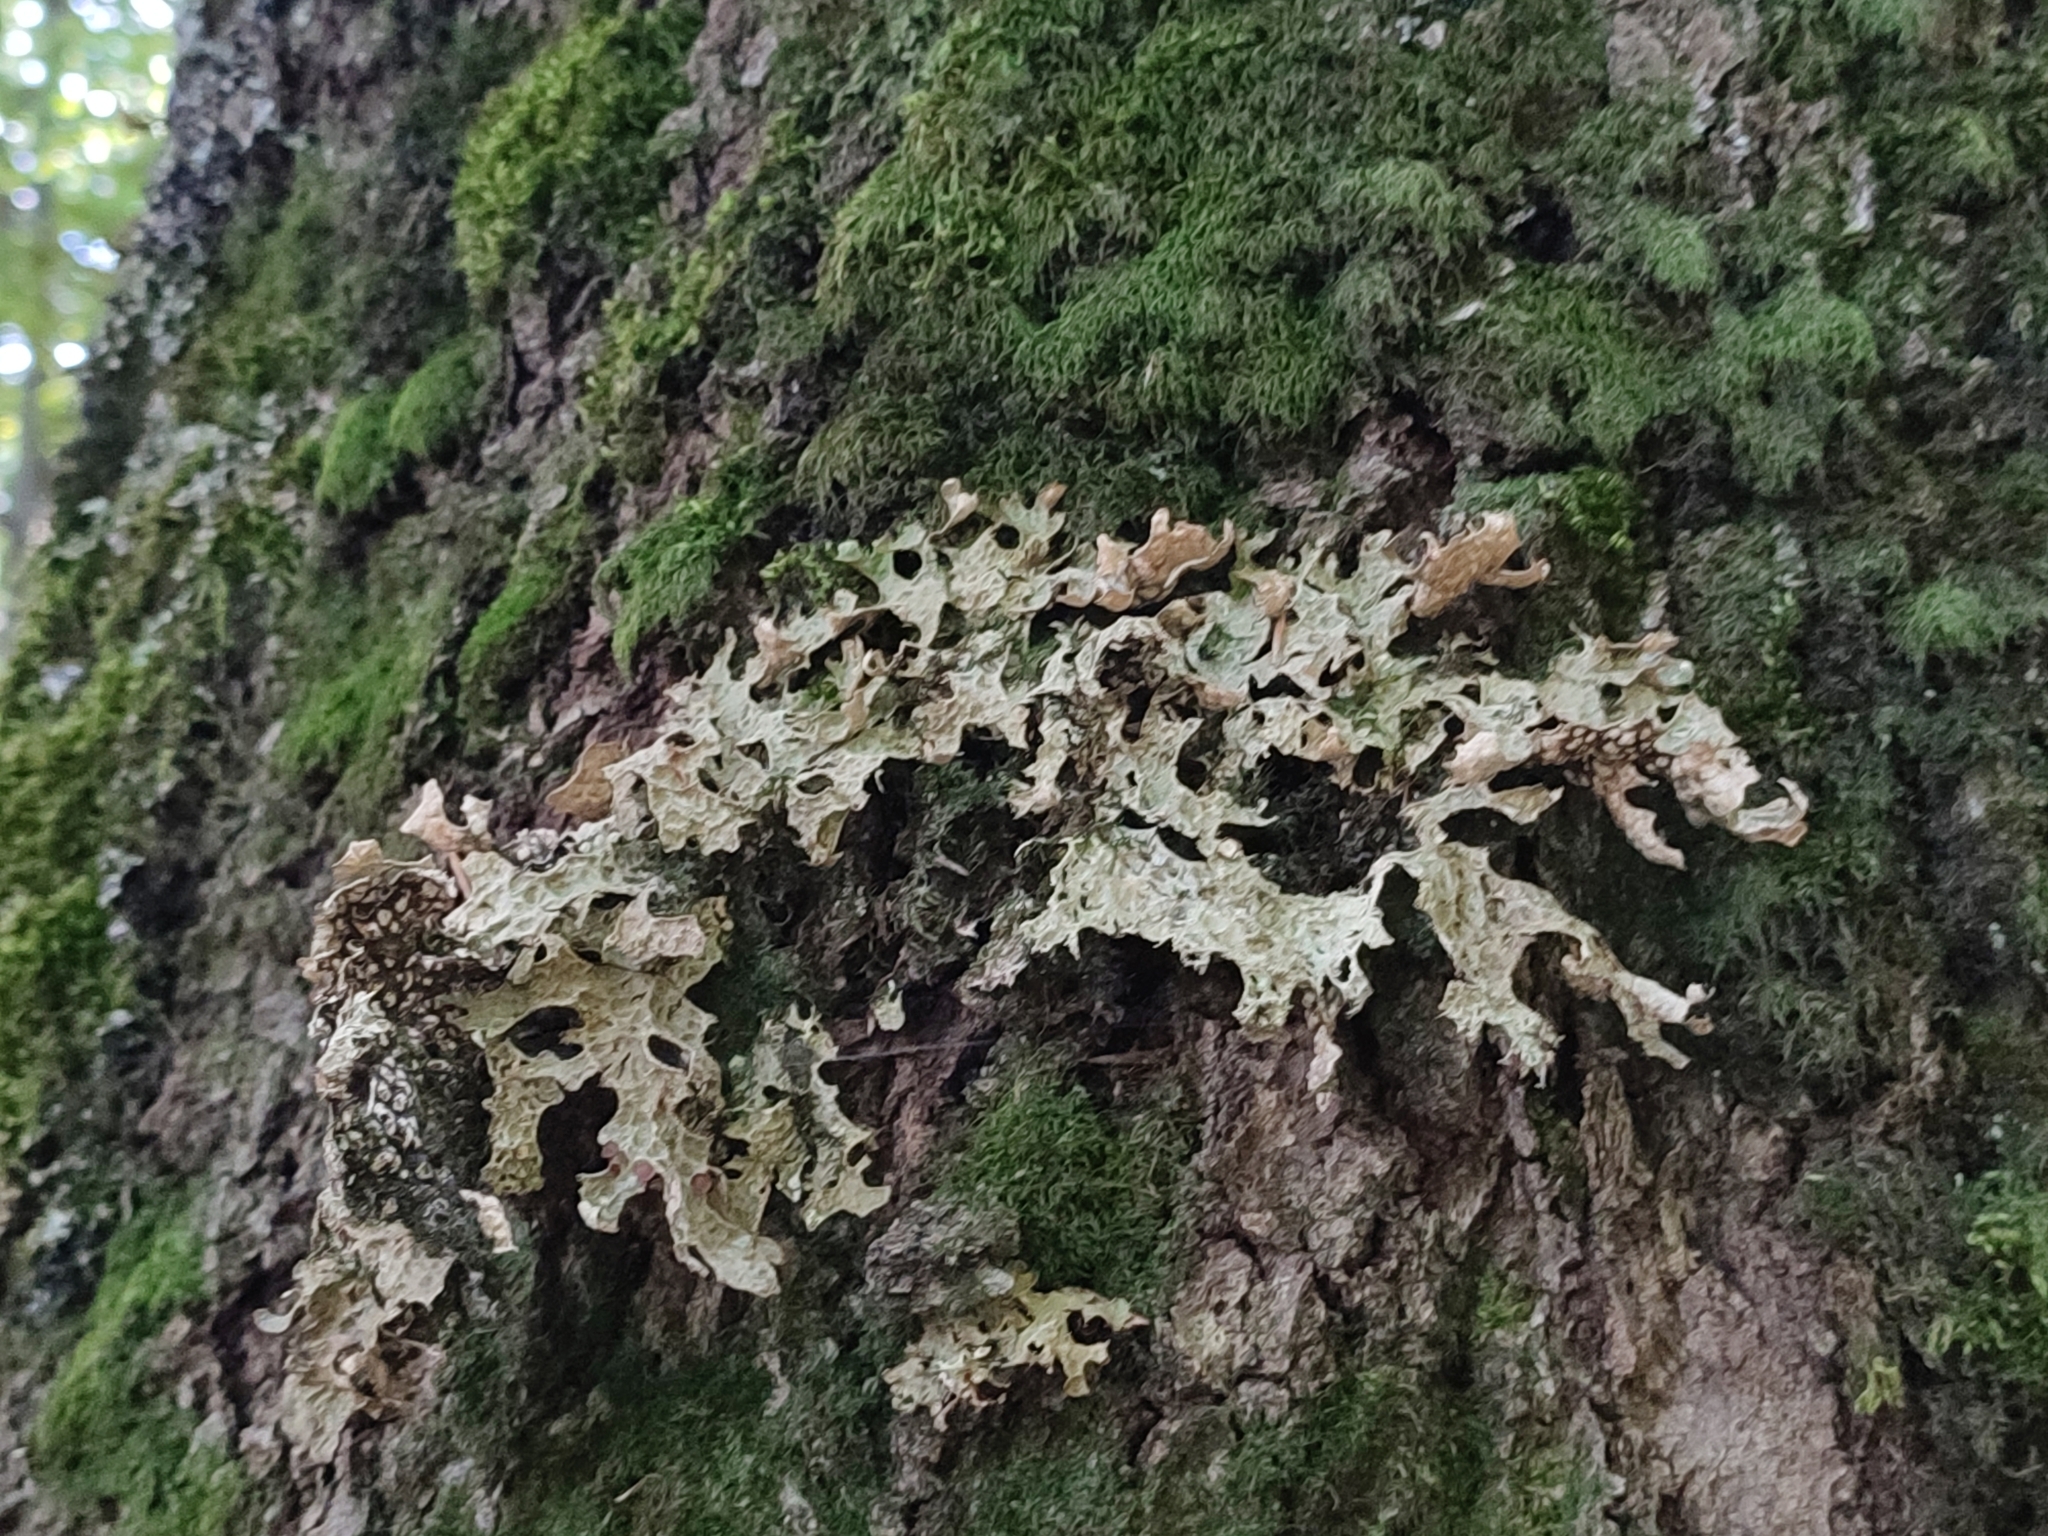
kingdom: Fungi
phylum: Ascomycota
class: Lecanoromycetes
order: Peltigerales
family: Lobariaceae
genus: Lobaria
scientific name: Lobaria pulmonaria
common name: Lungwort
